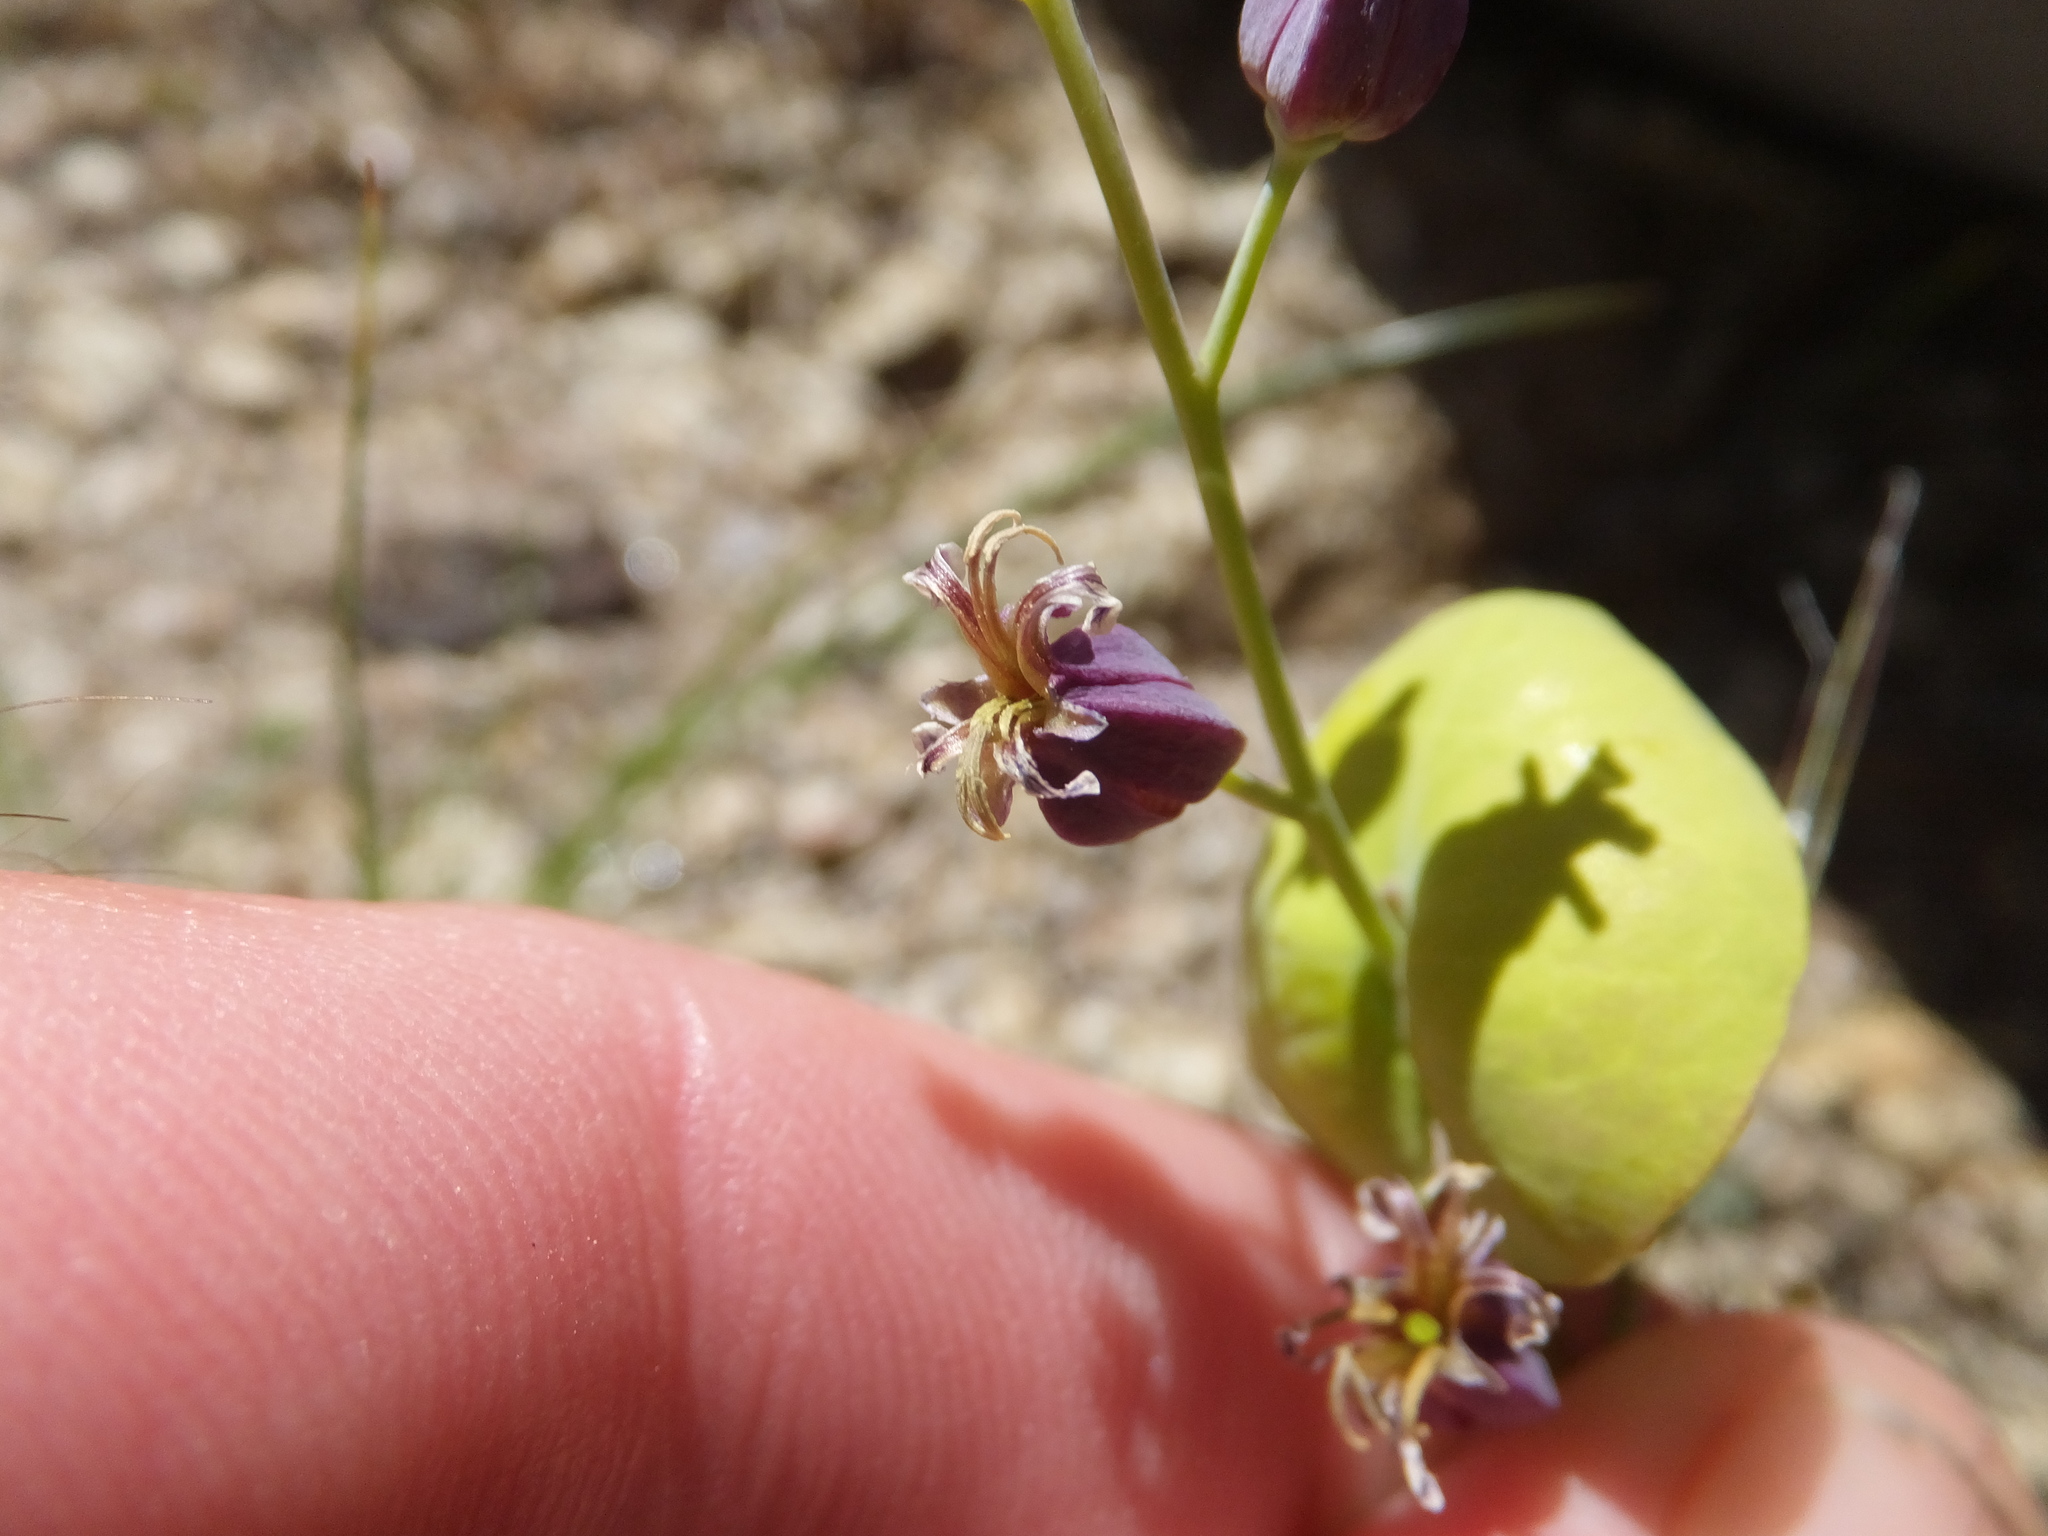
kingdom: Plantae
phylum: Tracheophyta
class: Magnoliopsida
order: Brassicales
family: Brassicaceae
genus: Streptanthus
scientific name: Streptanthus tortuosus
